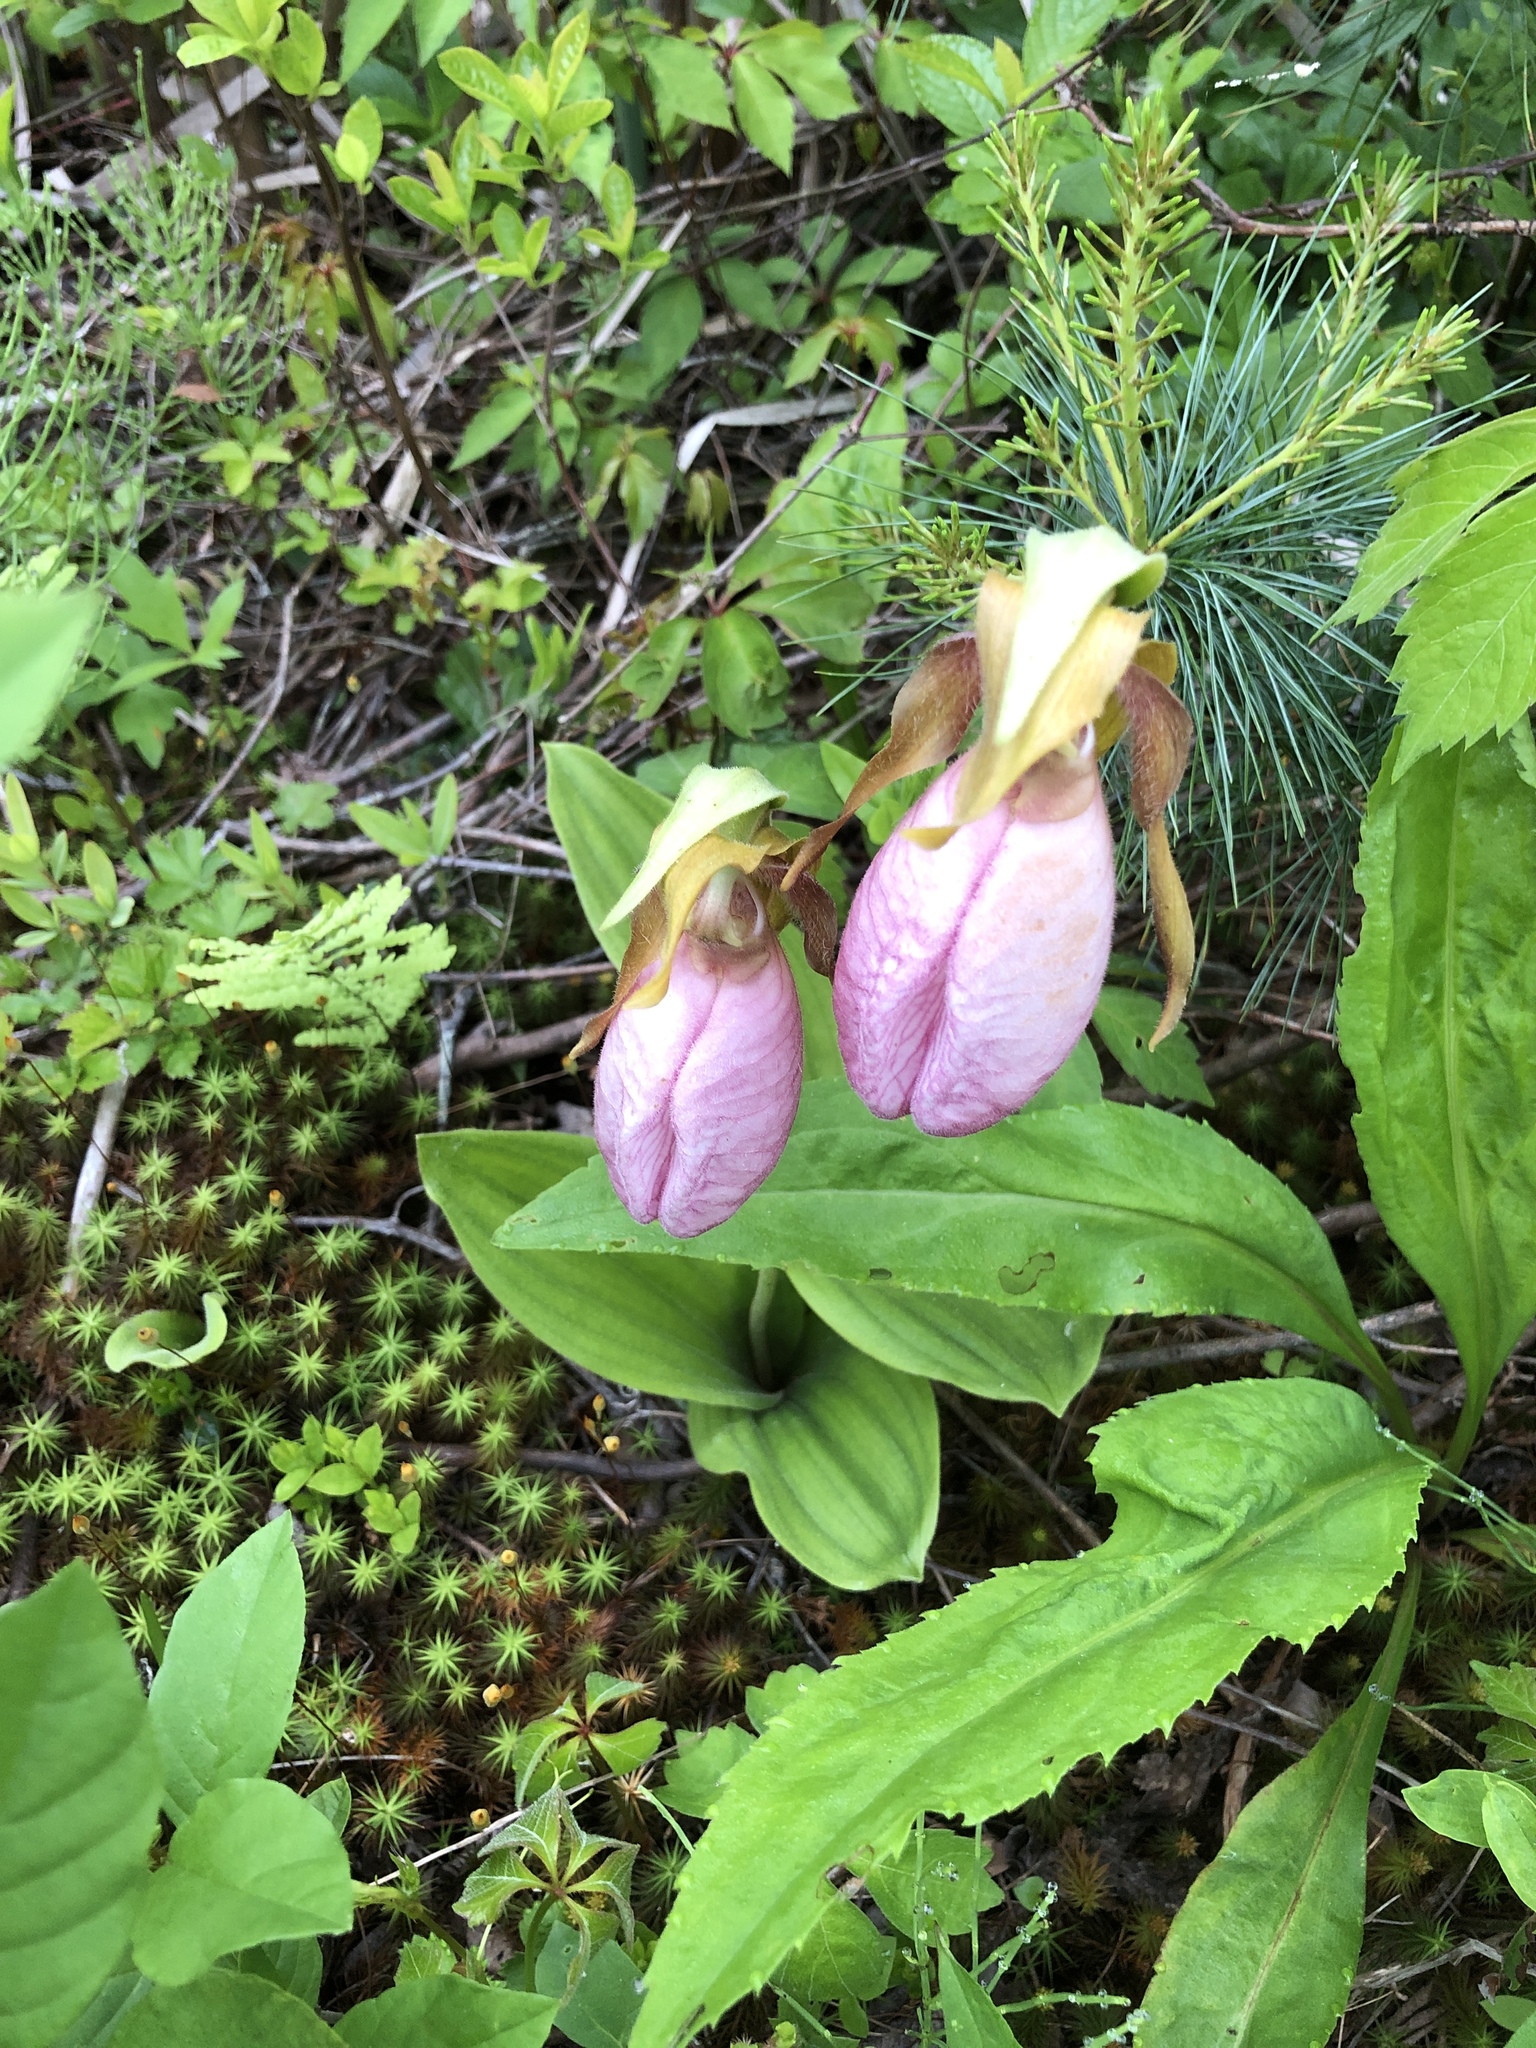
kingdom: Plantae
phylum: Tracheophyta
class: Liliopsida
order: Asparagales
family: Orchidaceae
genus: Cypripedium
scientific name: Cypripedium acaule
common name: Pink lady's-slipper
